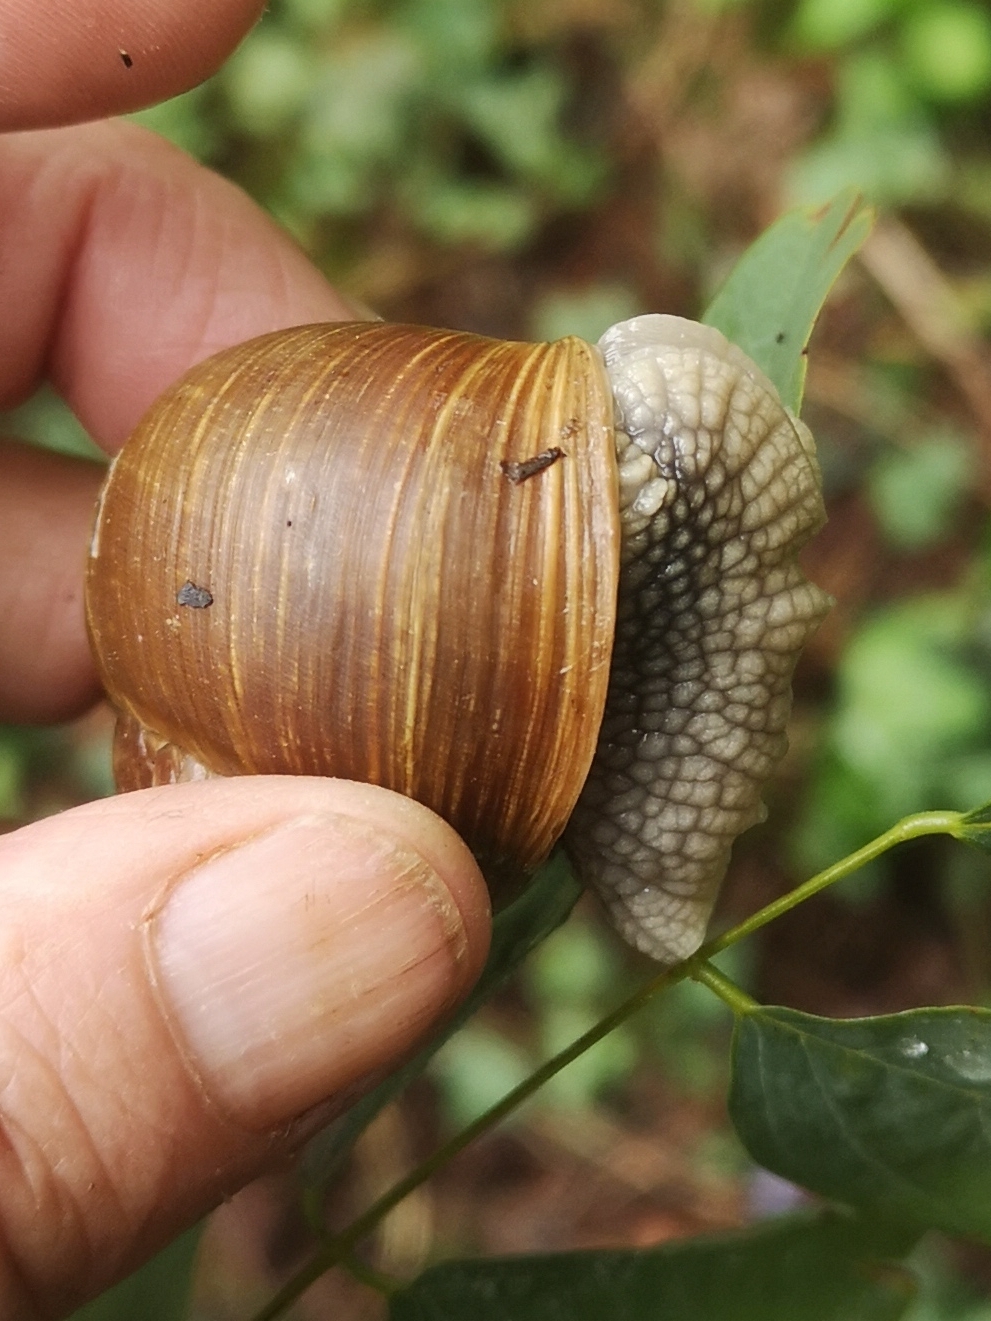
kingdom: Animalia
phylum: Mollusca
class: Gastropoda
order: Stylommatophora
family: Helicidae
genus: Helix
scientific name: Helix pomatia
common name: Roman snail
